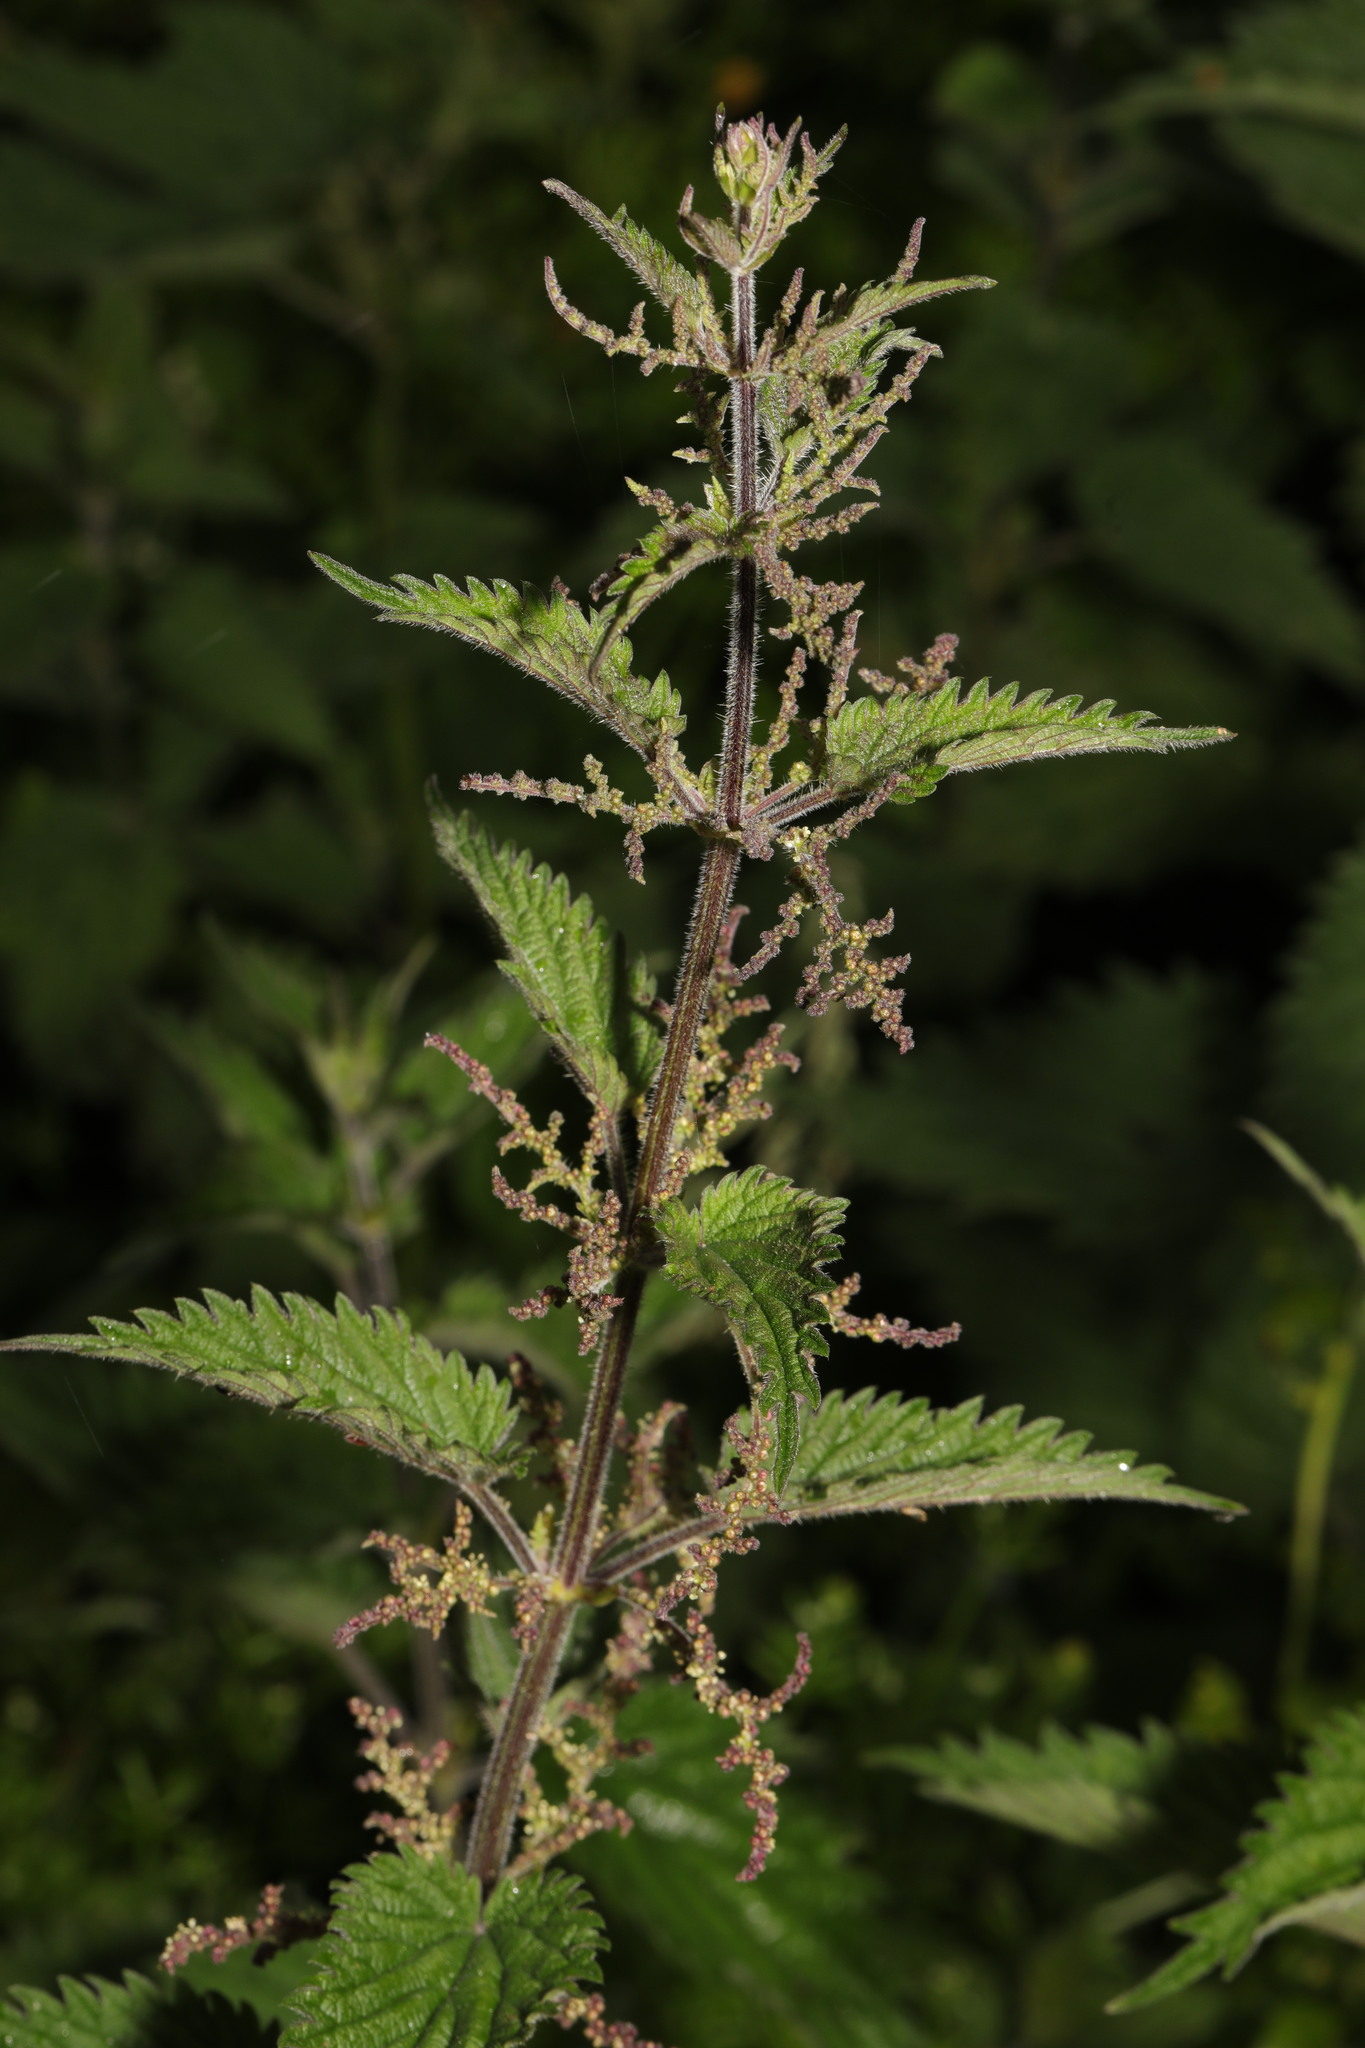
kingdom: Plantae
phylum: Tracheophyta
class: Magnoliopsida
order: Rosales
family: Urticaceae
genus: Urtica
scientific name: Urtica dioica
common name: Common nettle
